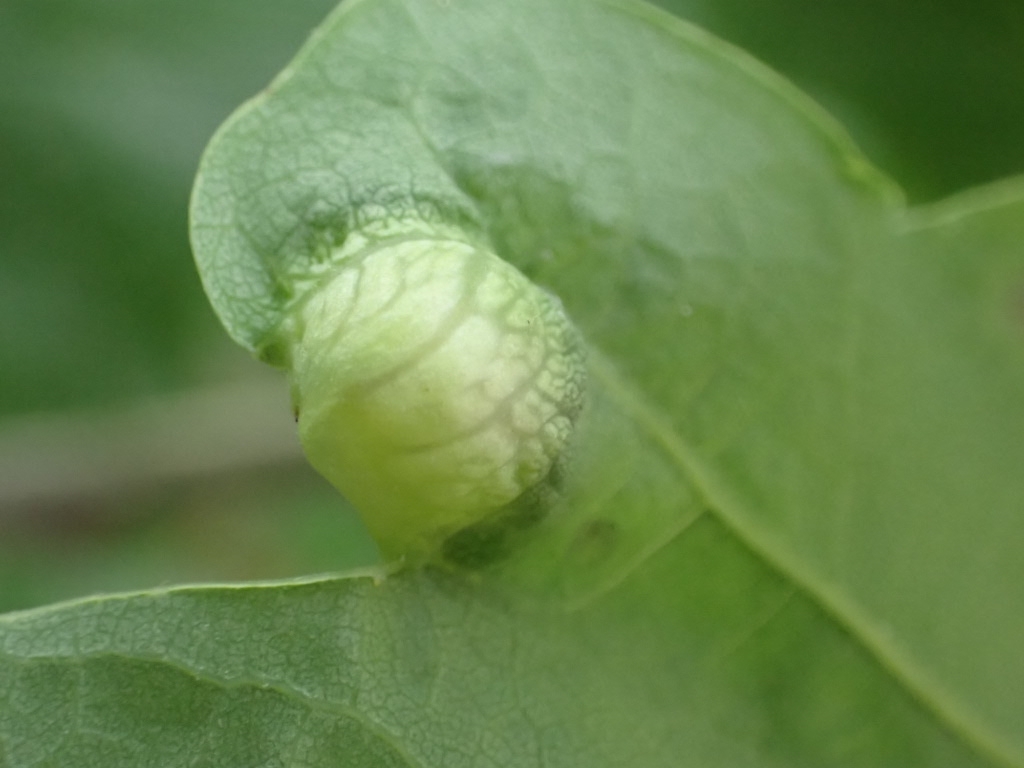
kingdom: Animalia
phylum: Arthropoda
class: Insecta
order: Hymenoptera
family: Cynipidae
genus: Andricus
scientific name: Andricus curvator
